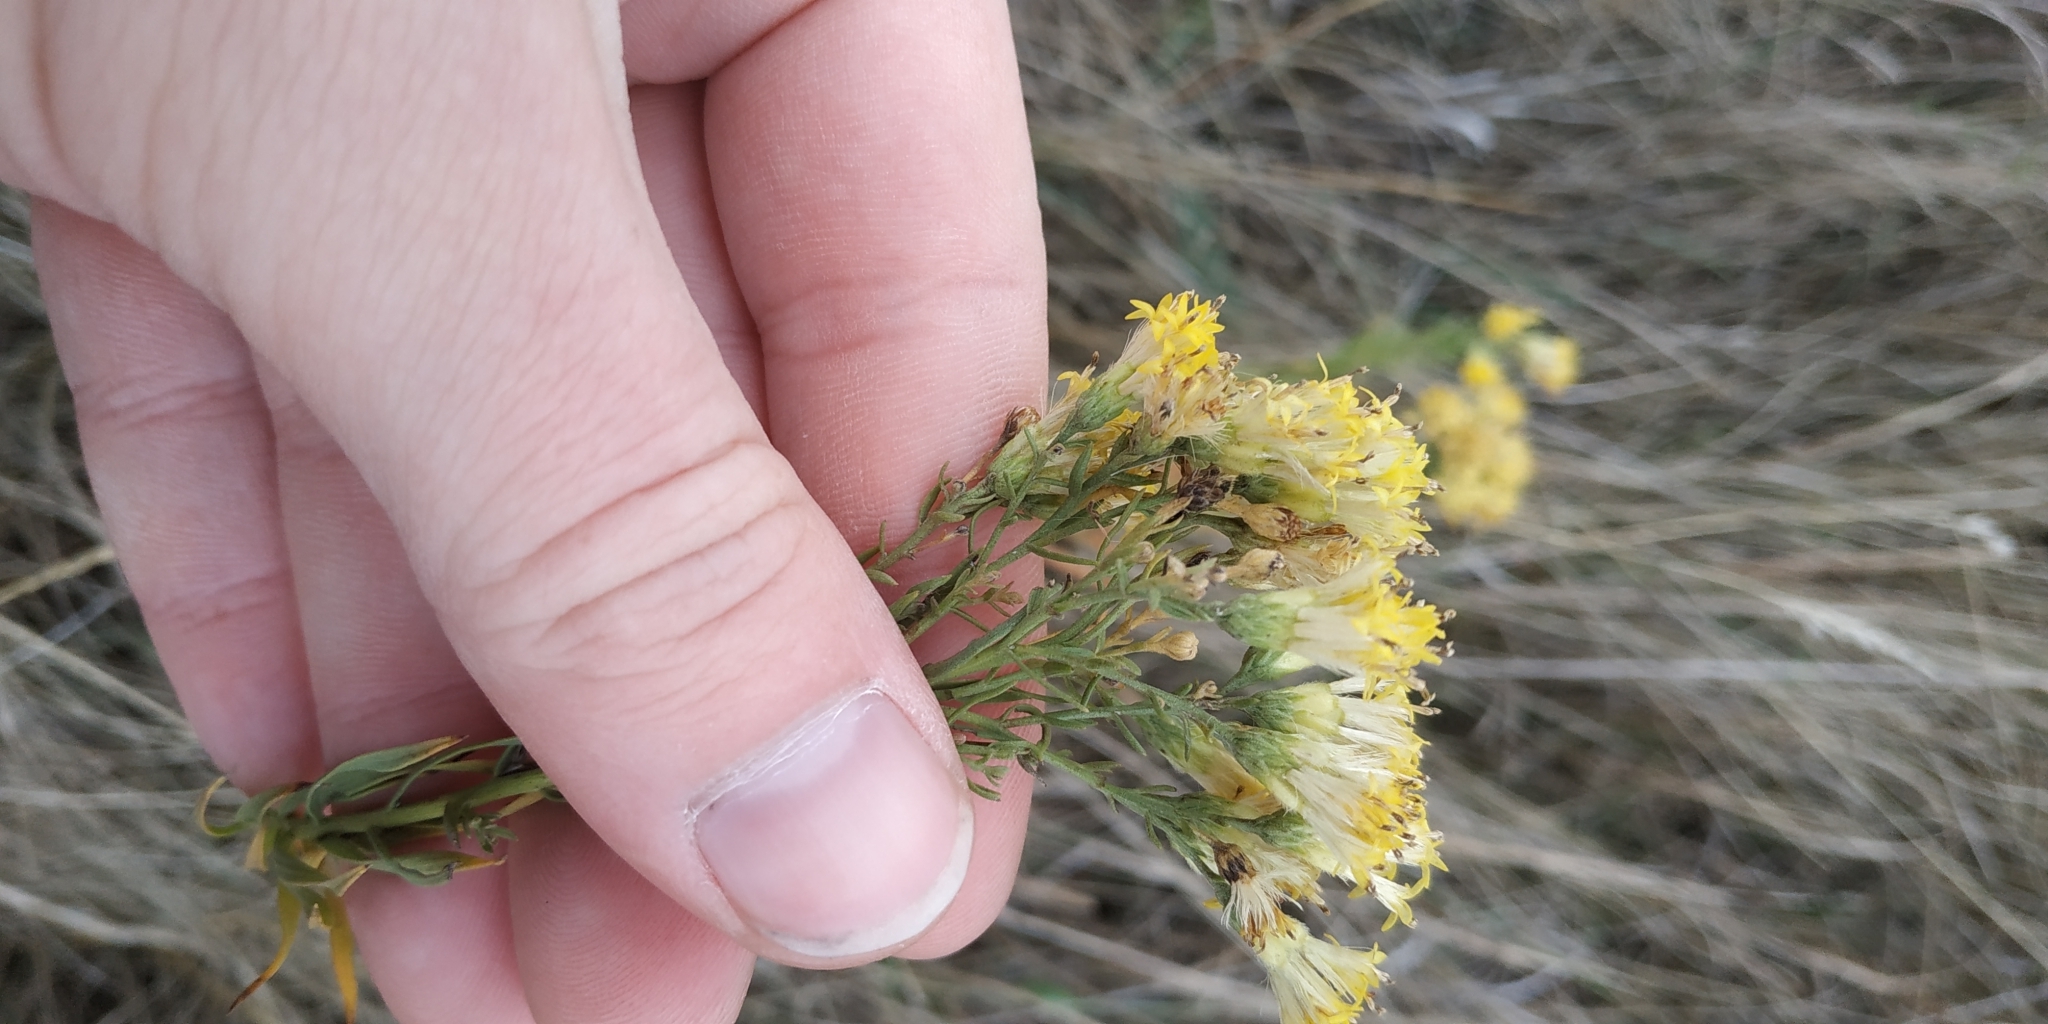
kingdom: Plantae
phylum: Tracheophyta
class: Magnoliopsida
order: Asterales
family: Asteraceae
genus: Galatella
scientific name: Galatella biflora
